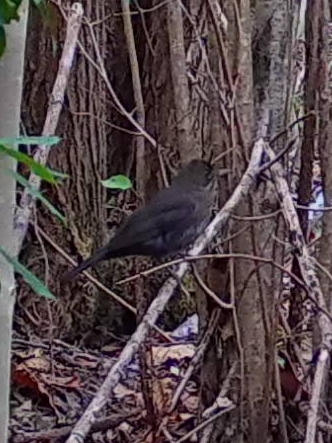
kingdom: Animalia
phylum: Chordata
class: Aves
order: Passeriformes
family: Turdidae
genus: Turdus
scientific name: Turdus merula
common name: Common blackbird
